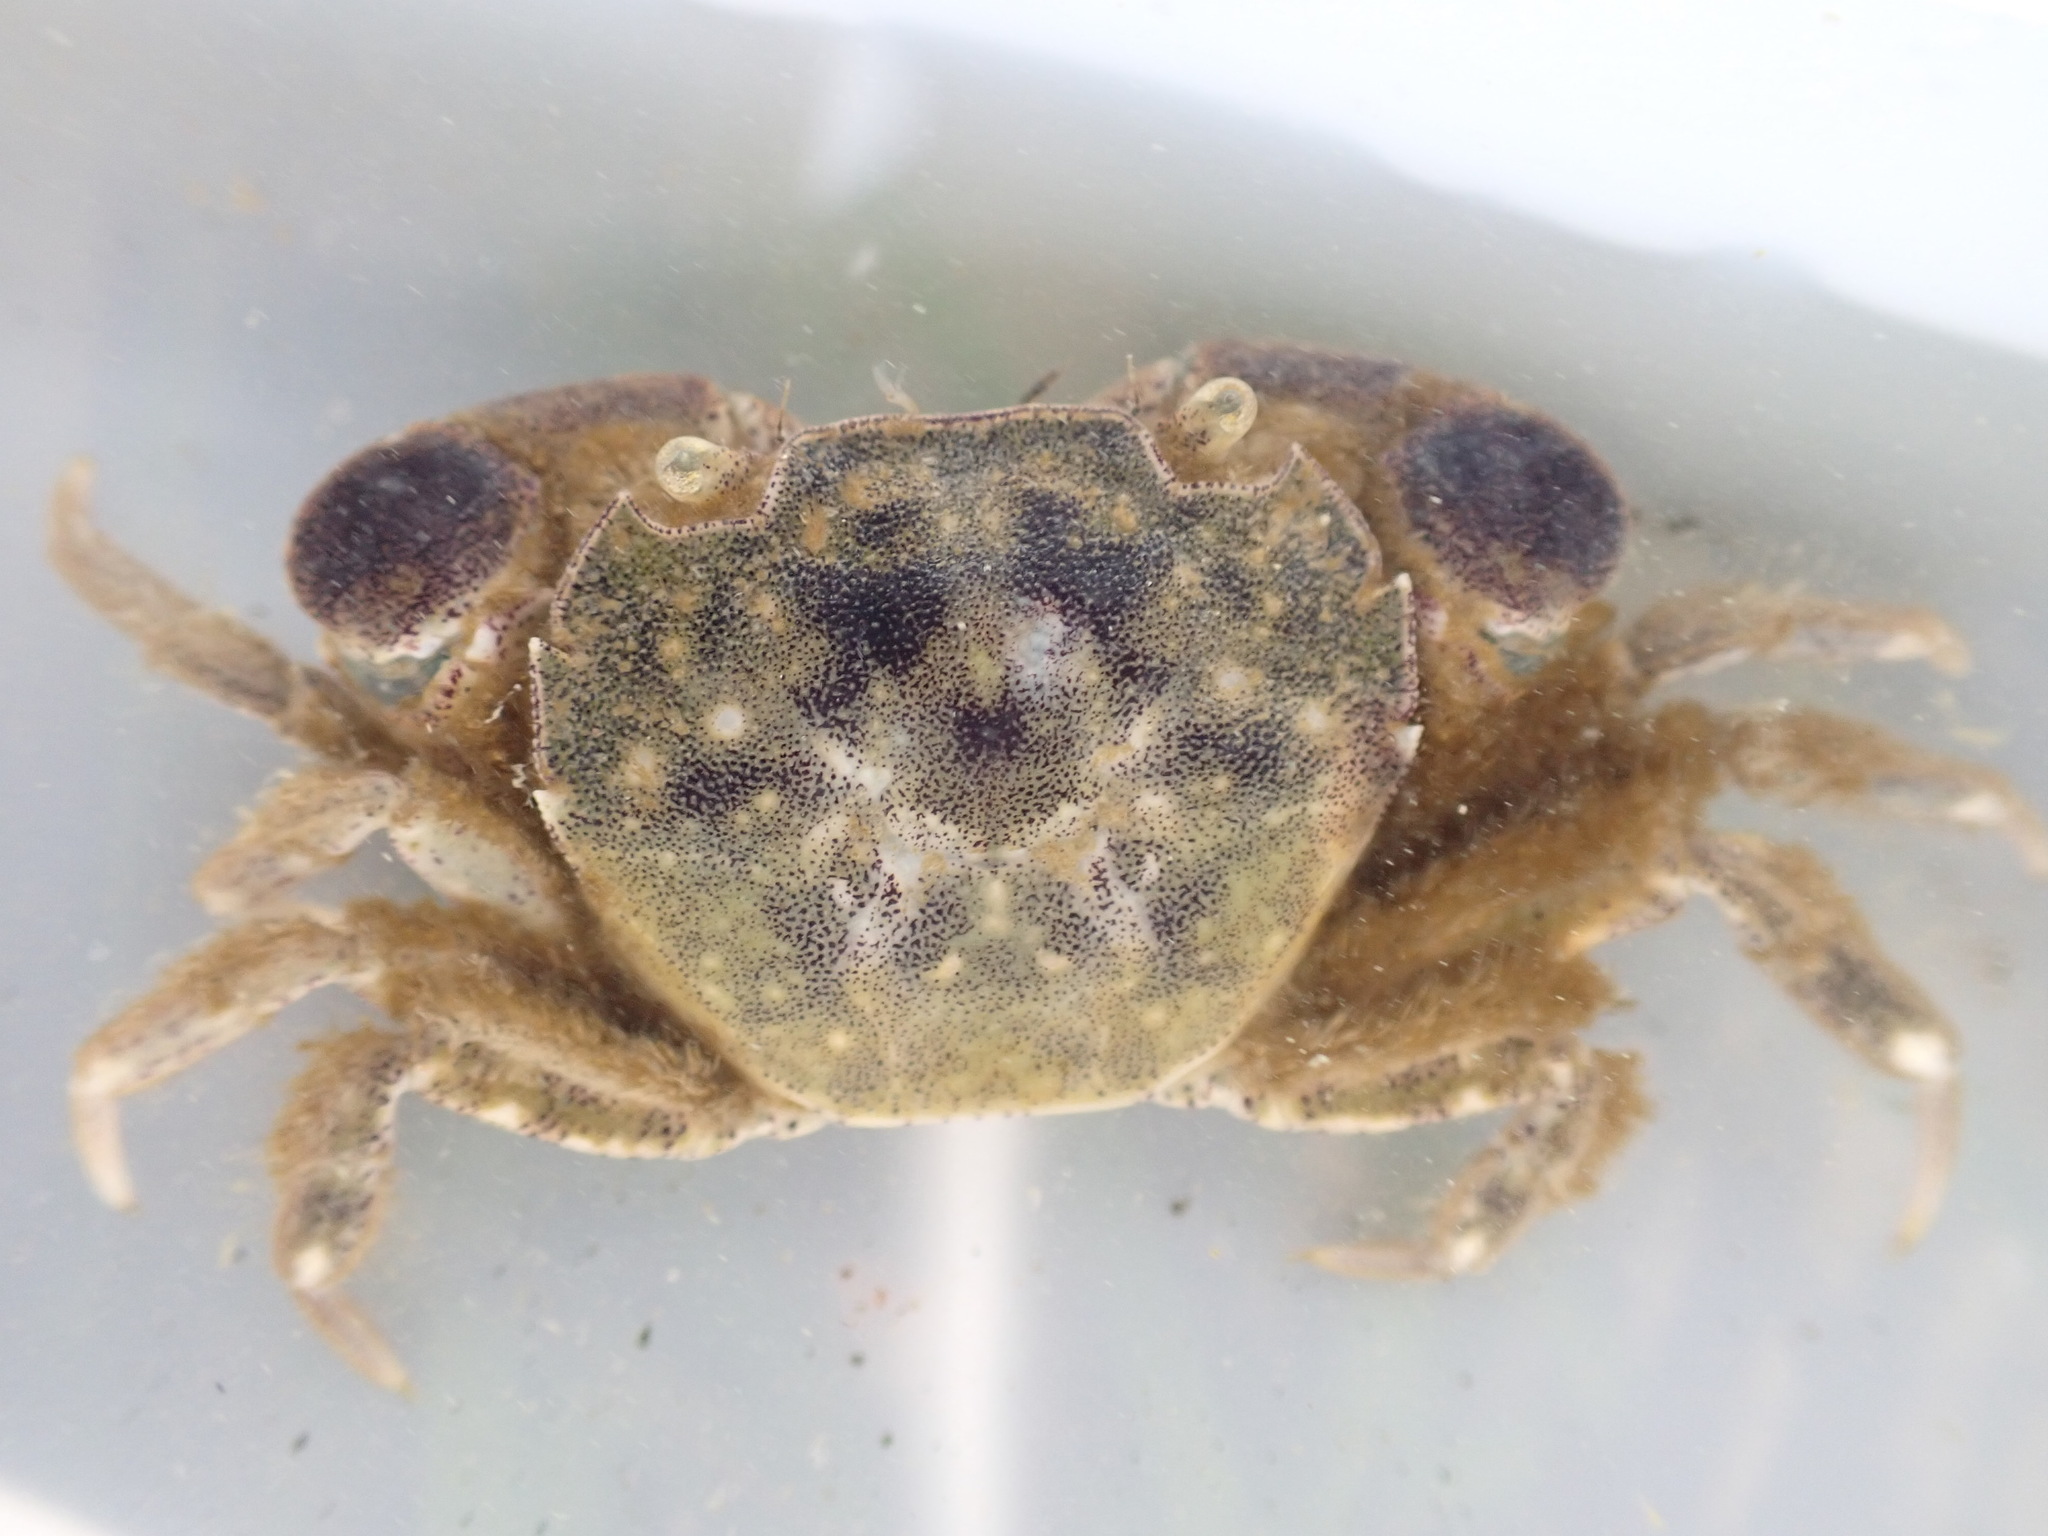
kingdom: Animalia
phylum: Arthropoda
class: Malacostraca
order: Decapoda
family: Varunidae
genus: Hemigrapsus
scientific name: Hemigrapsus crenulatus
